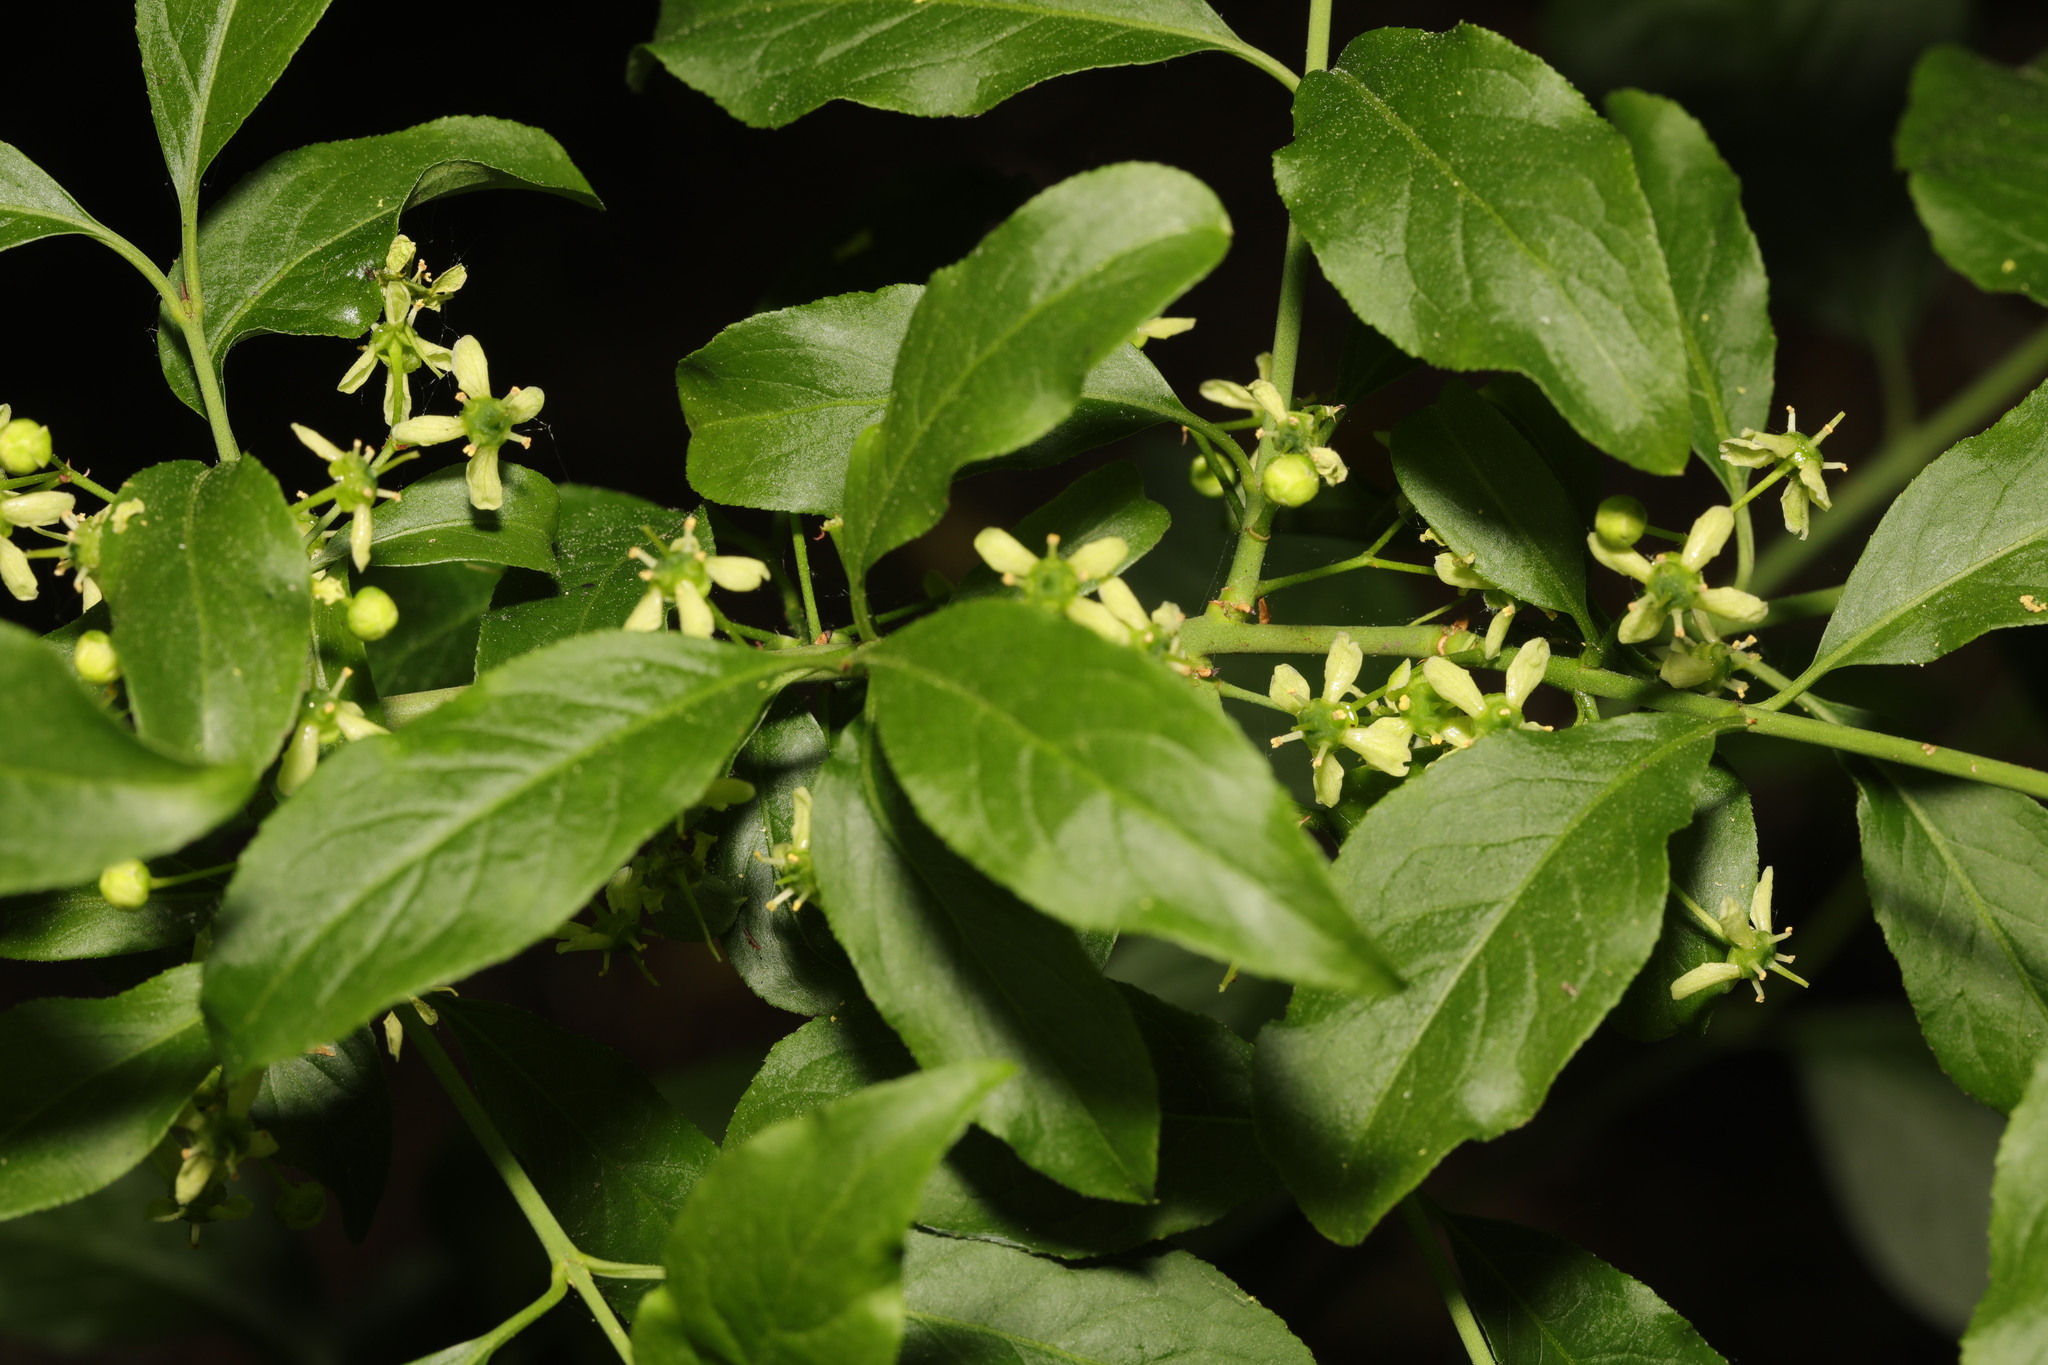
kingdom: Plantae
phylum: Tracheophyta
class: Magnoliopsida
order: Celastrales
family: Celastraceae
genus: Euonymus
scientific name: Euonymus europaeus
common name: Spindle
